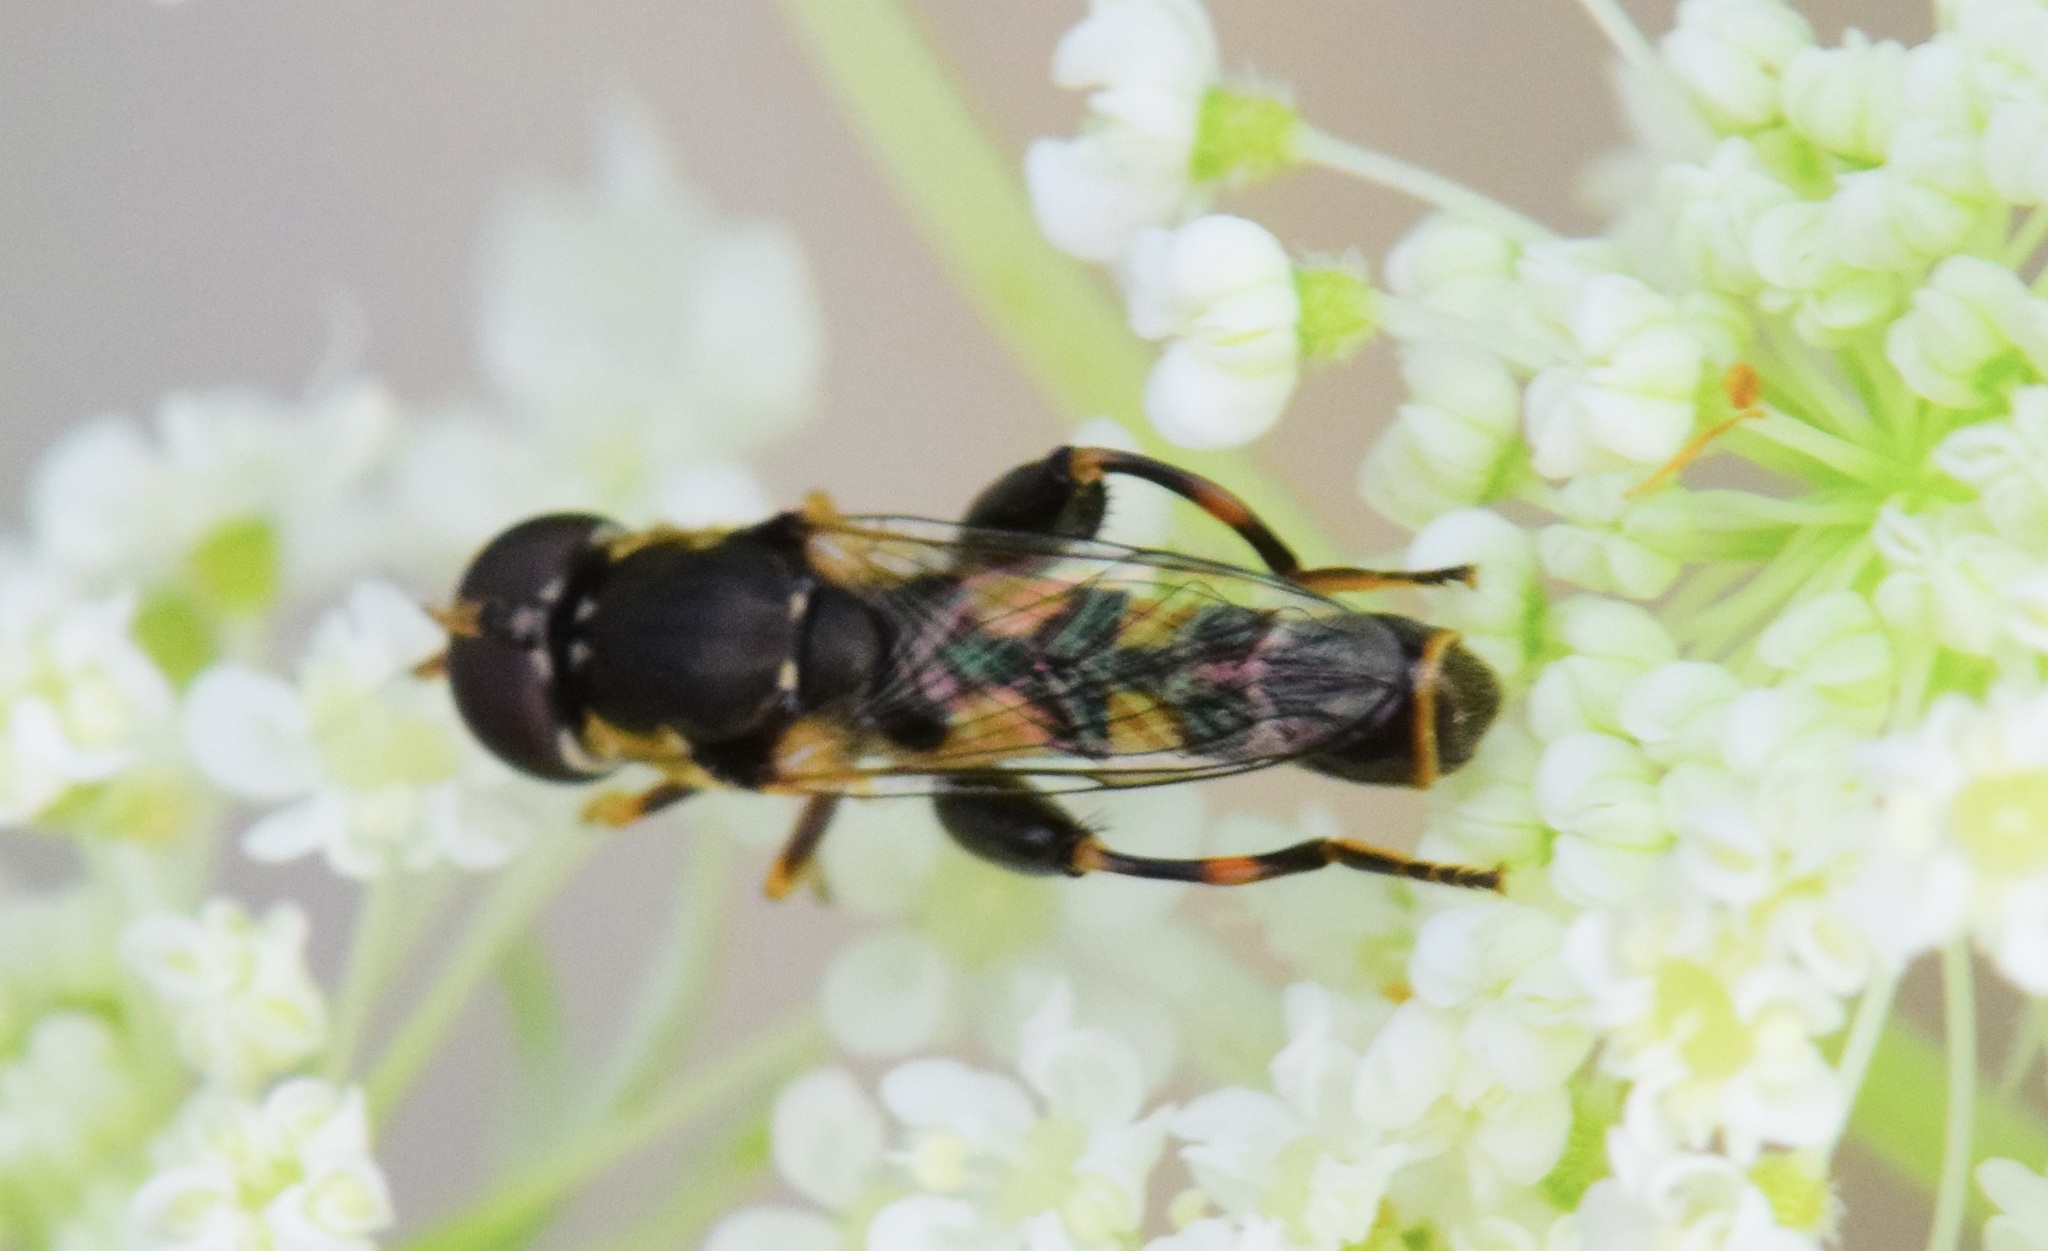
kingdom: Animalia
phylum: Arthropoda
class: Insecta
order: Diptera
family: Syrphidae
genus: Syritta
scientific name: Syritta pipiens
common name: Hover fly
